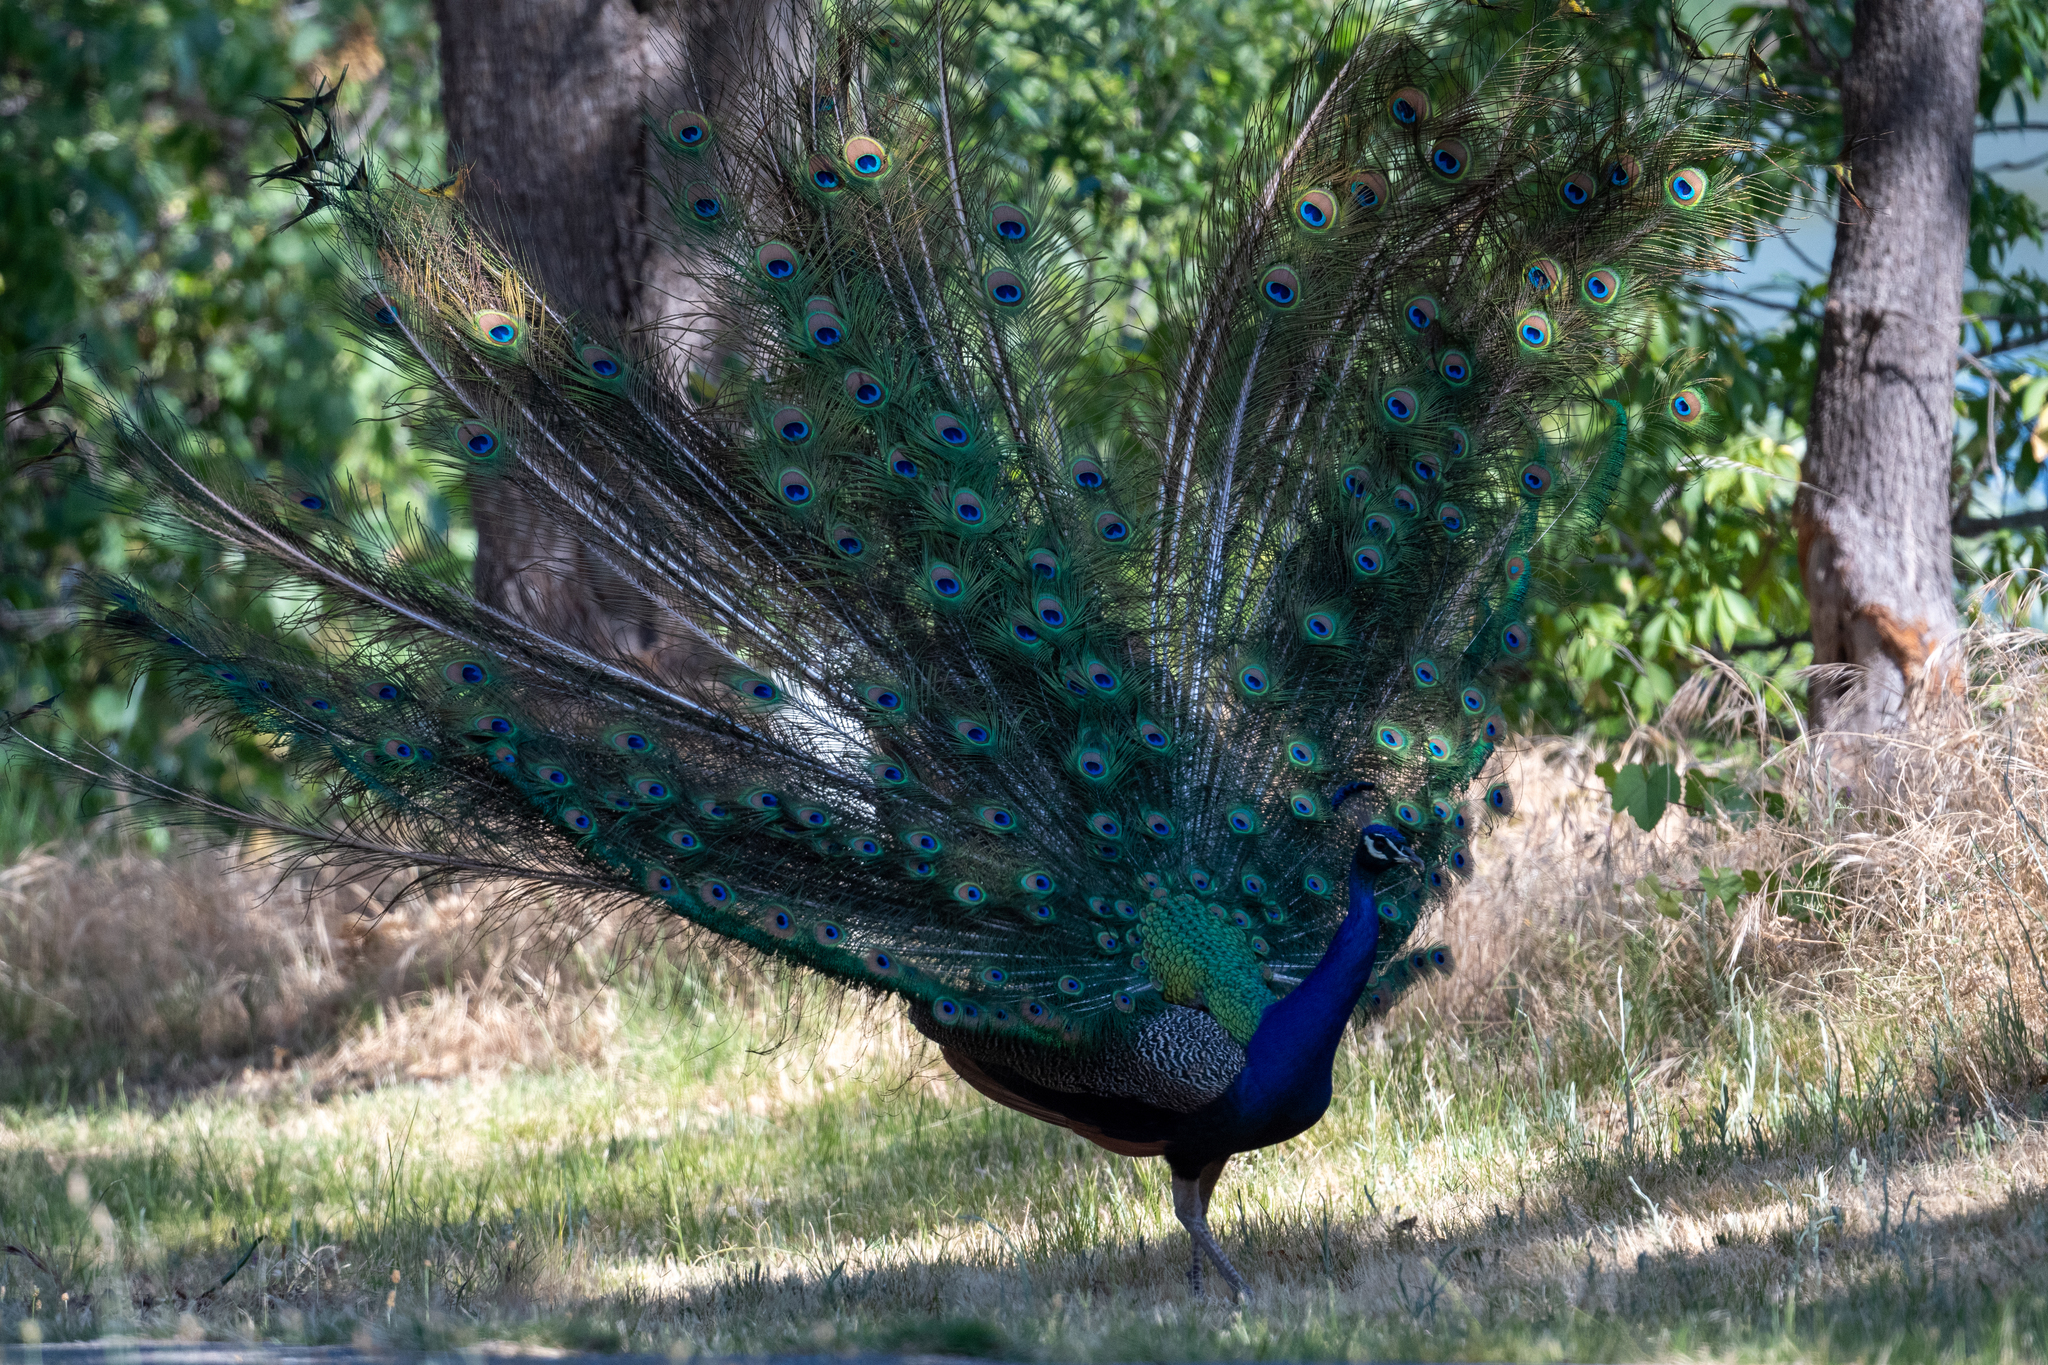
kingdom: Animalia
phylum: Chordata
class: Aves
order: Galliformes
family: Phasianidae
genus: Pavo
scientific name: Pavo cristatus
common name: Indian peafowl
